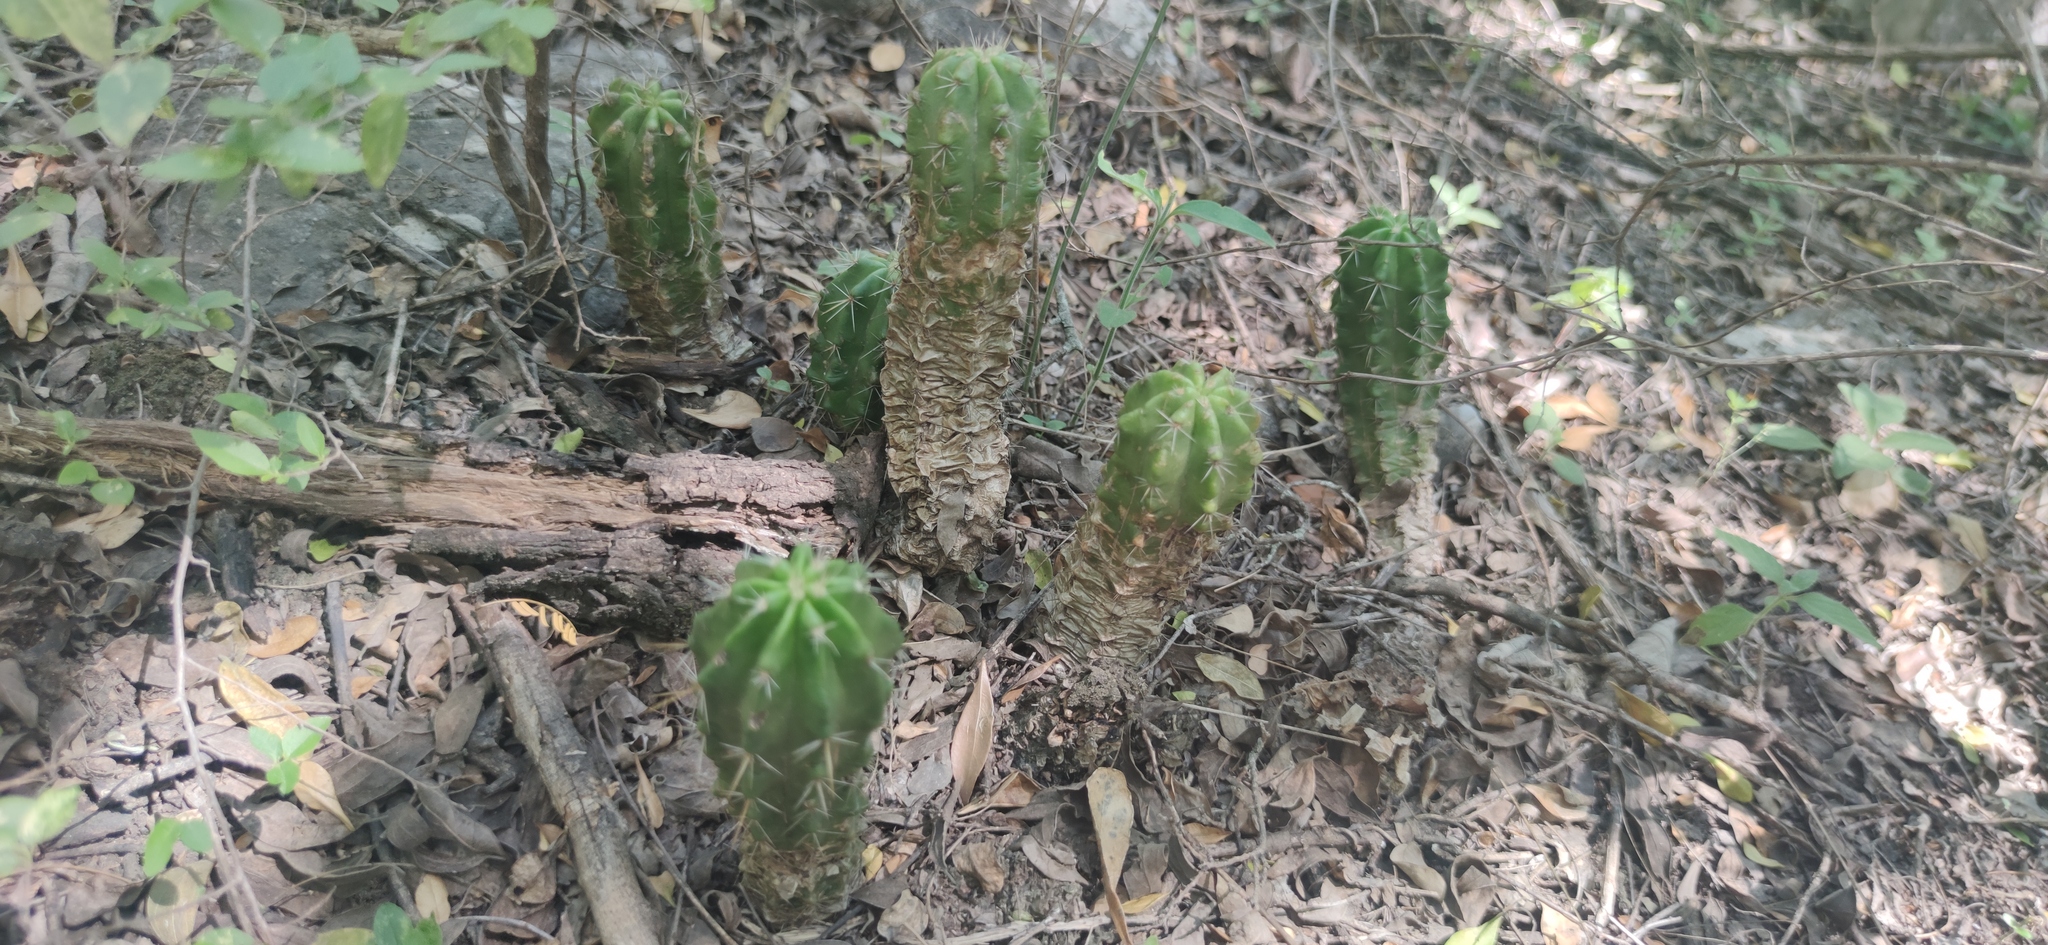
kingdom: Plantae
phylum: Tracheophyta
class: Magnoliopsida
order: Caryophyllales
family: Cactaceae
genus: Echinocereus
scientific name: Echinocereus viereckii
